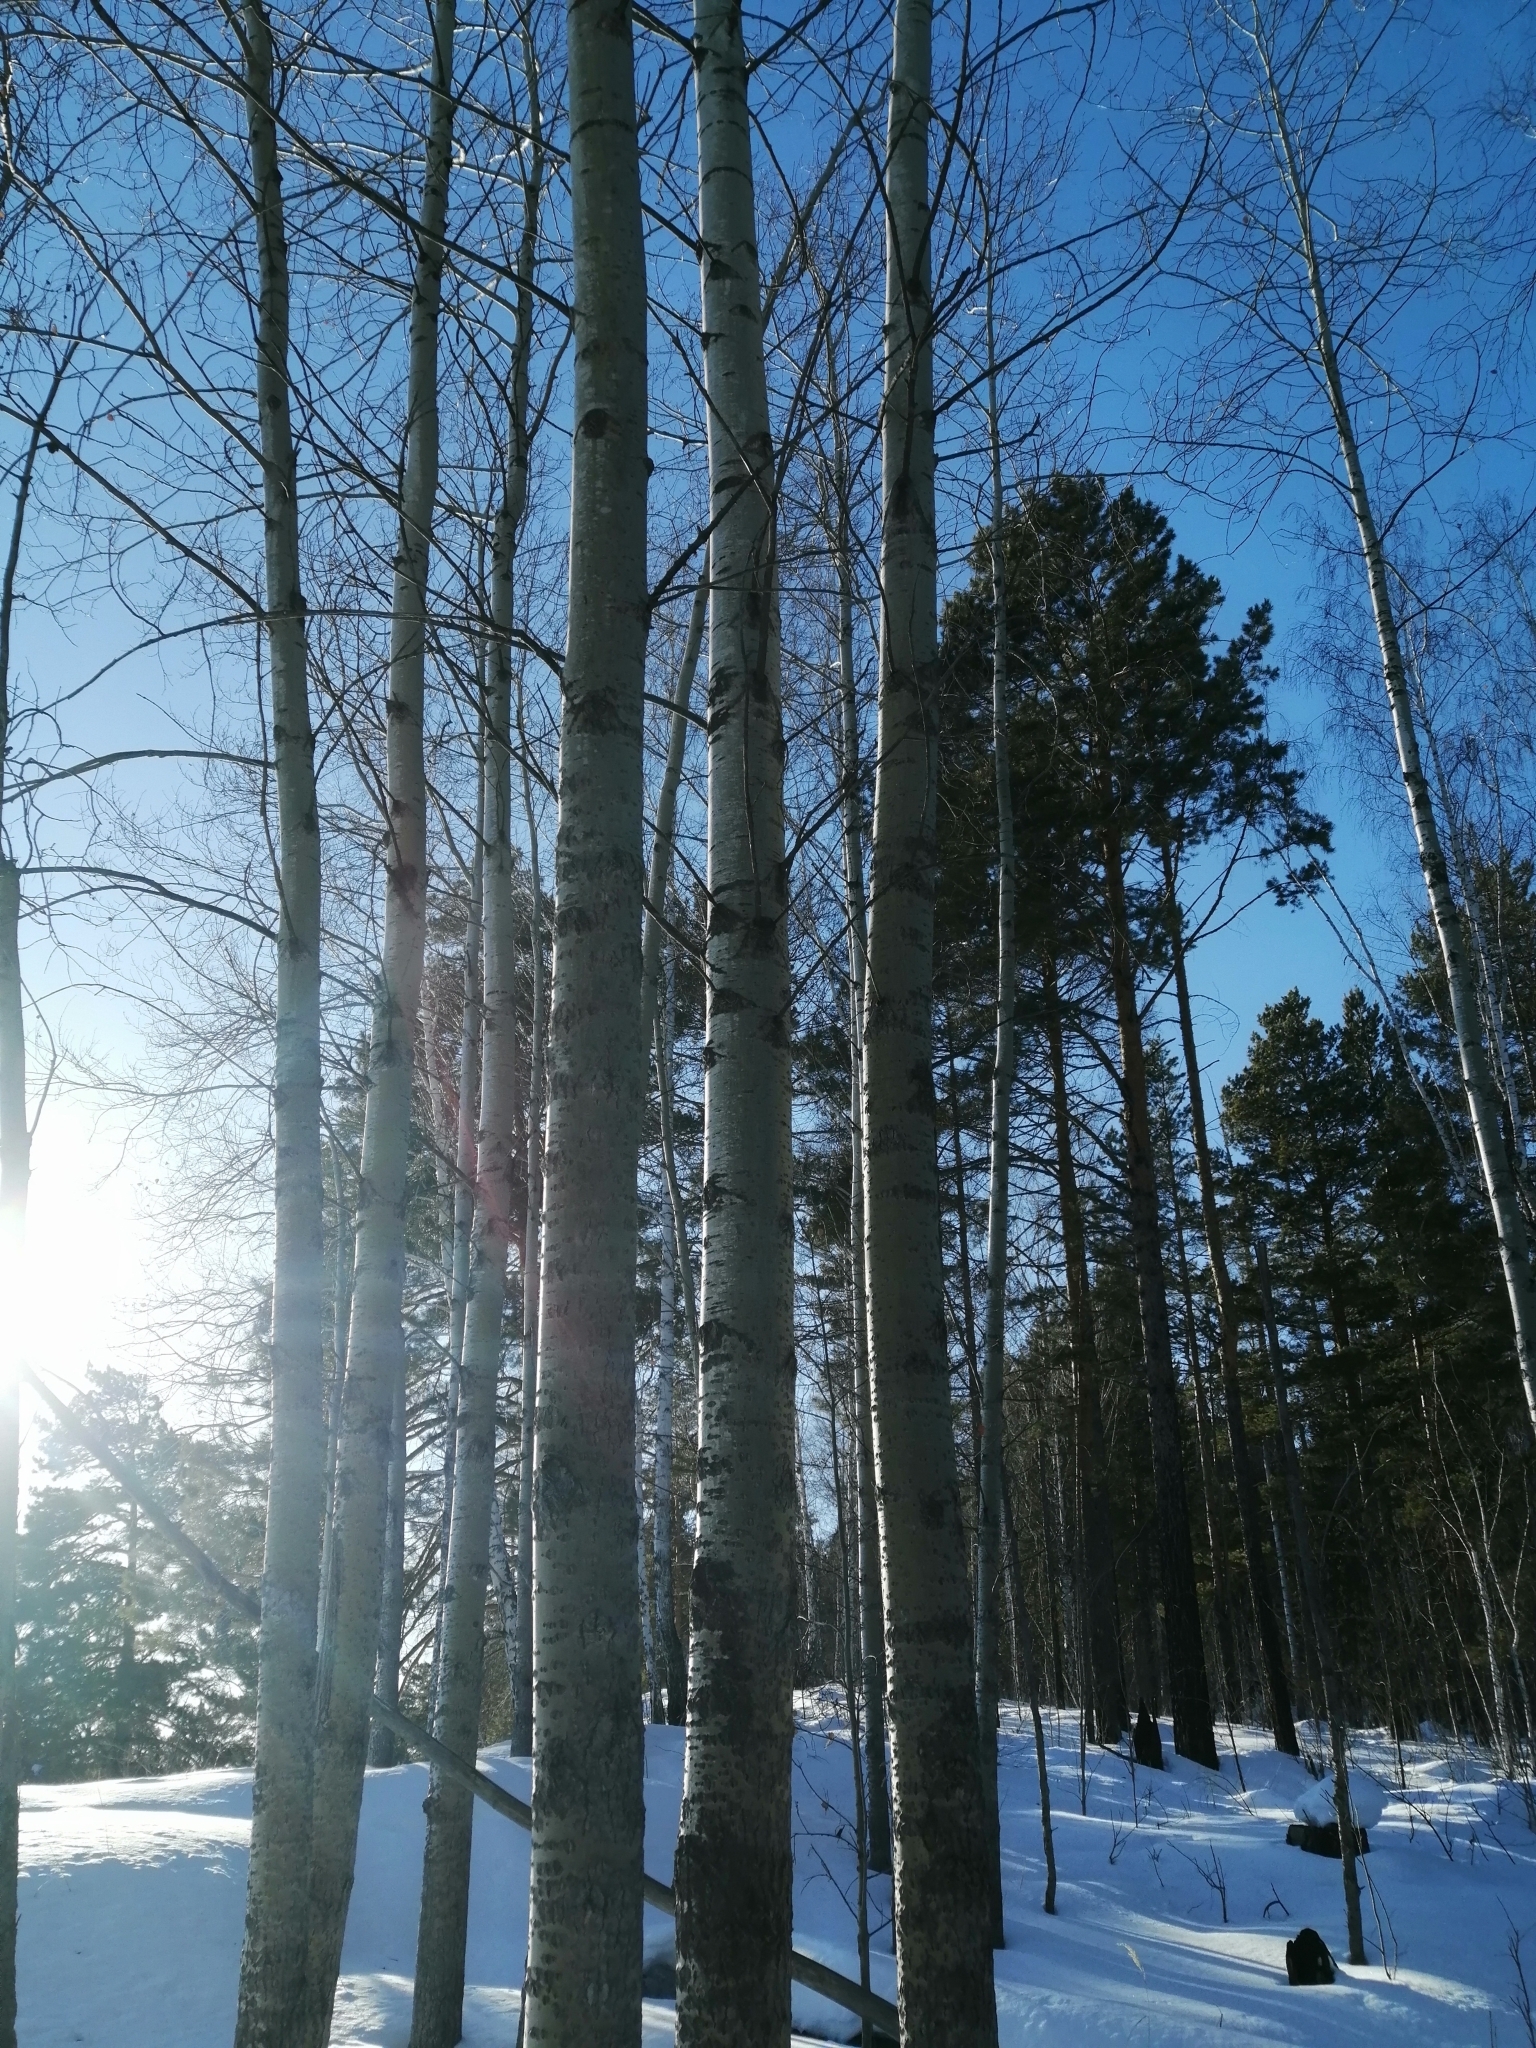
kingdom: Plantae
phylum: Tracheophyta
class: Magnoliopsida
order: Malpighiales
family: Salicaceae
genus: Populus
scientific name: Populus tremula
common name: European aspen
